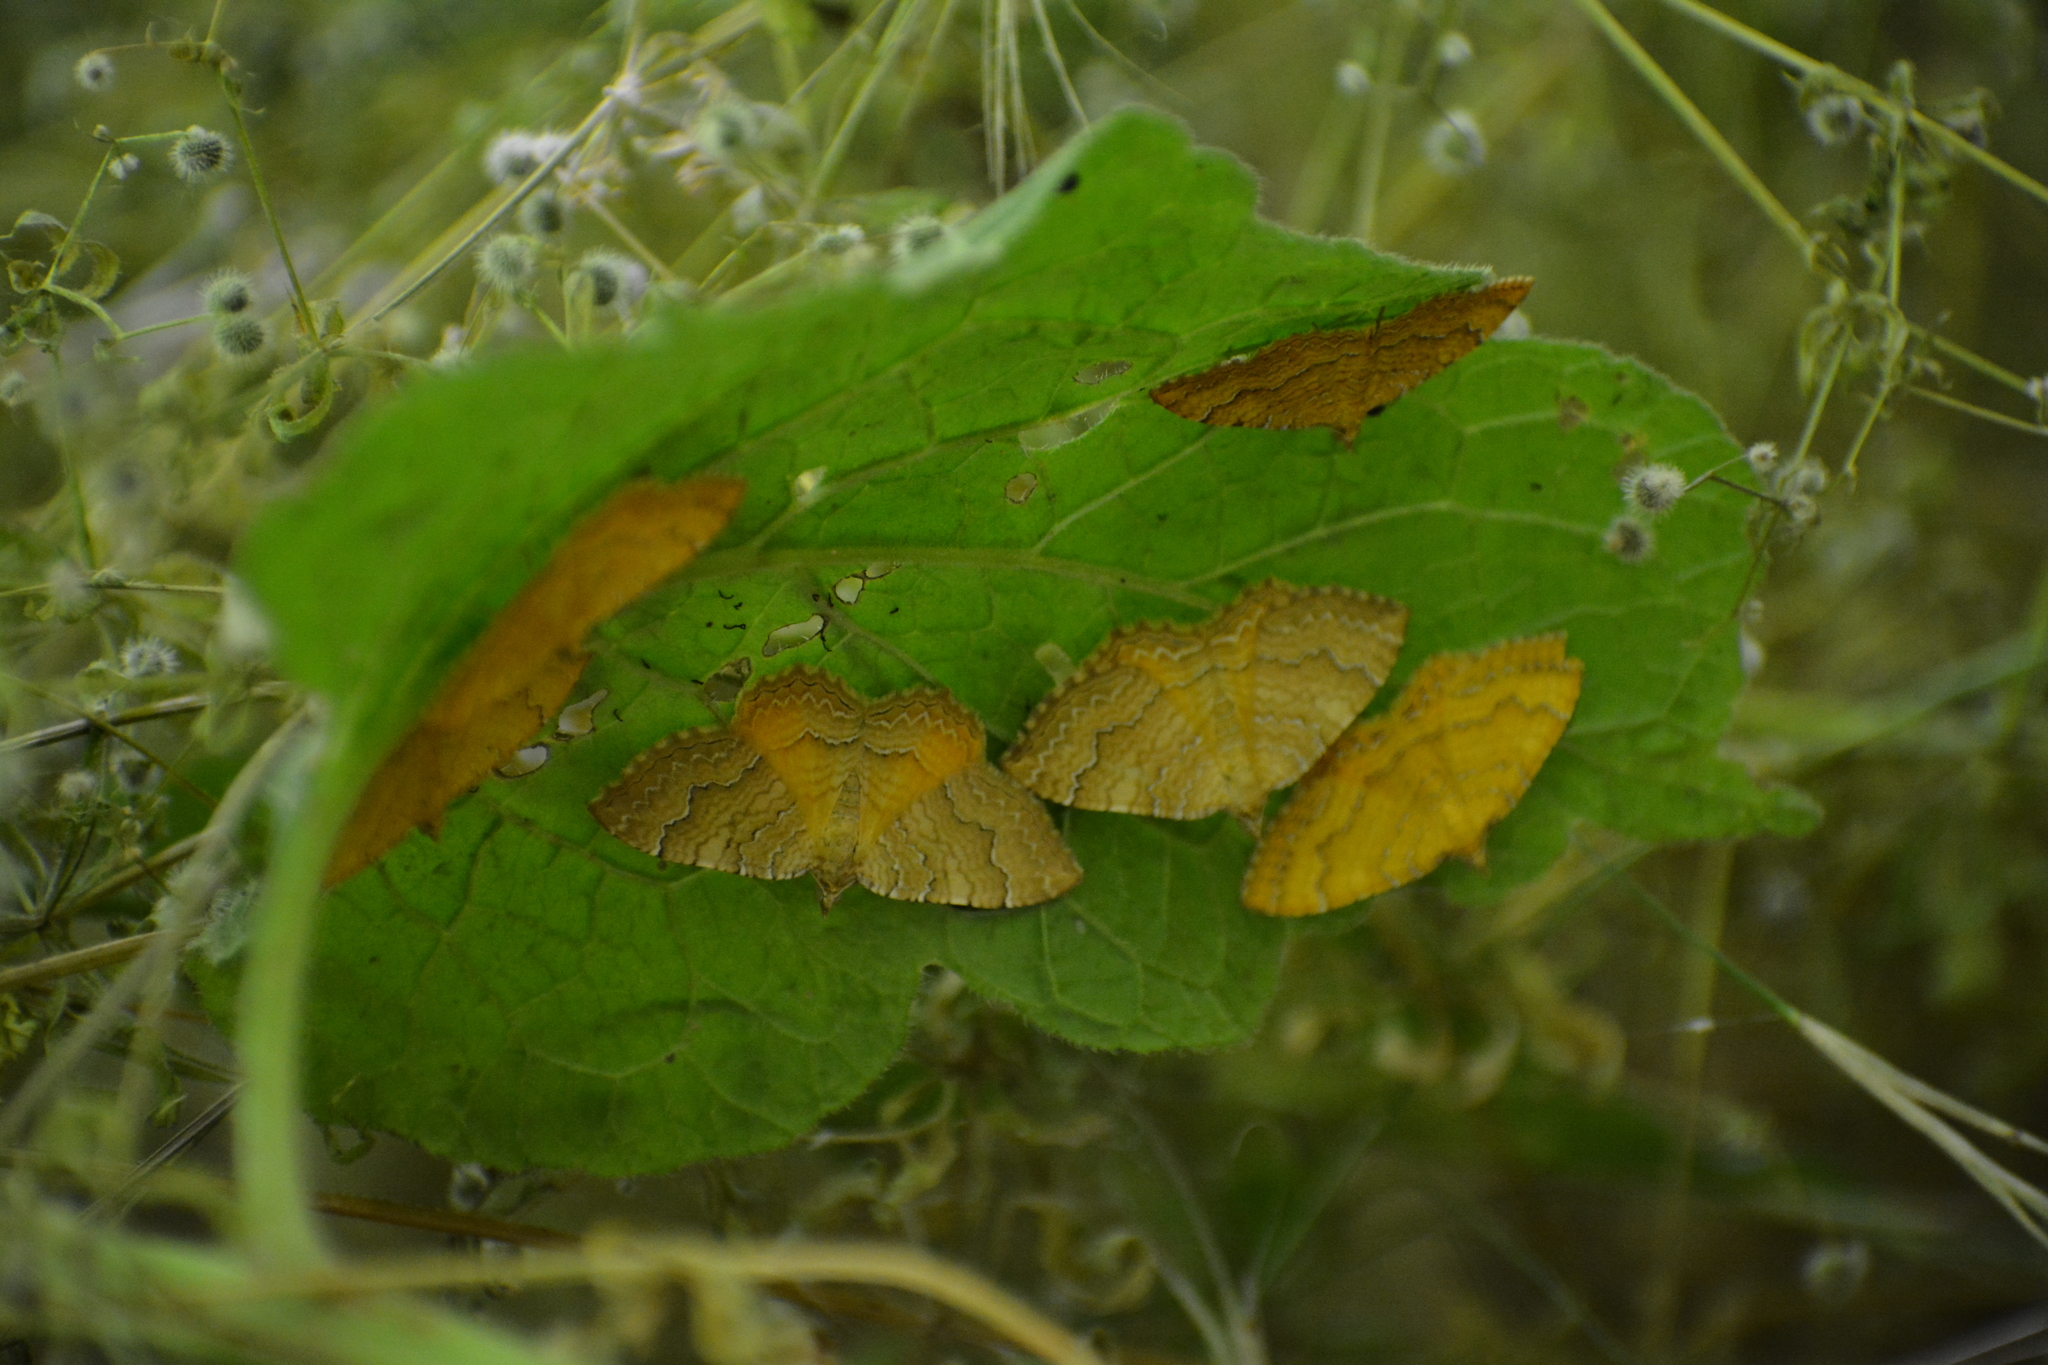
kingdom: Animalia
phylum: Arthropoda
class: Insecta
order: Lepidoptera
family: Geometridae
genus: Camptogramma
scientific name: Camptogramma bilineata
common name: Yellow shell
